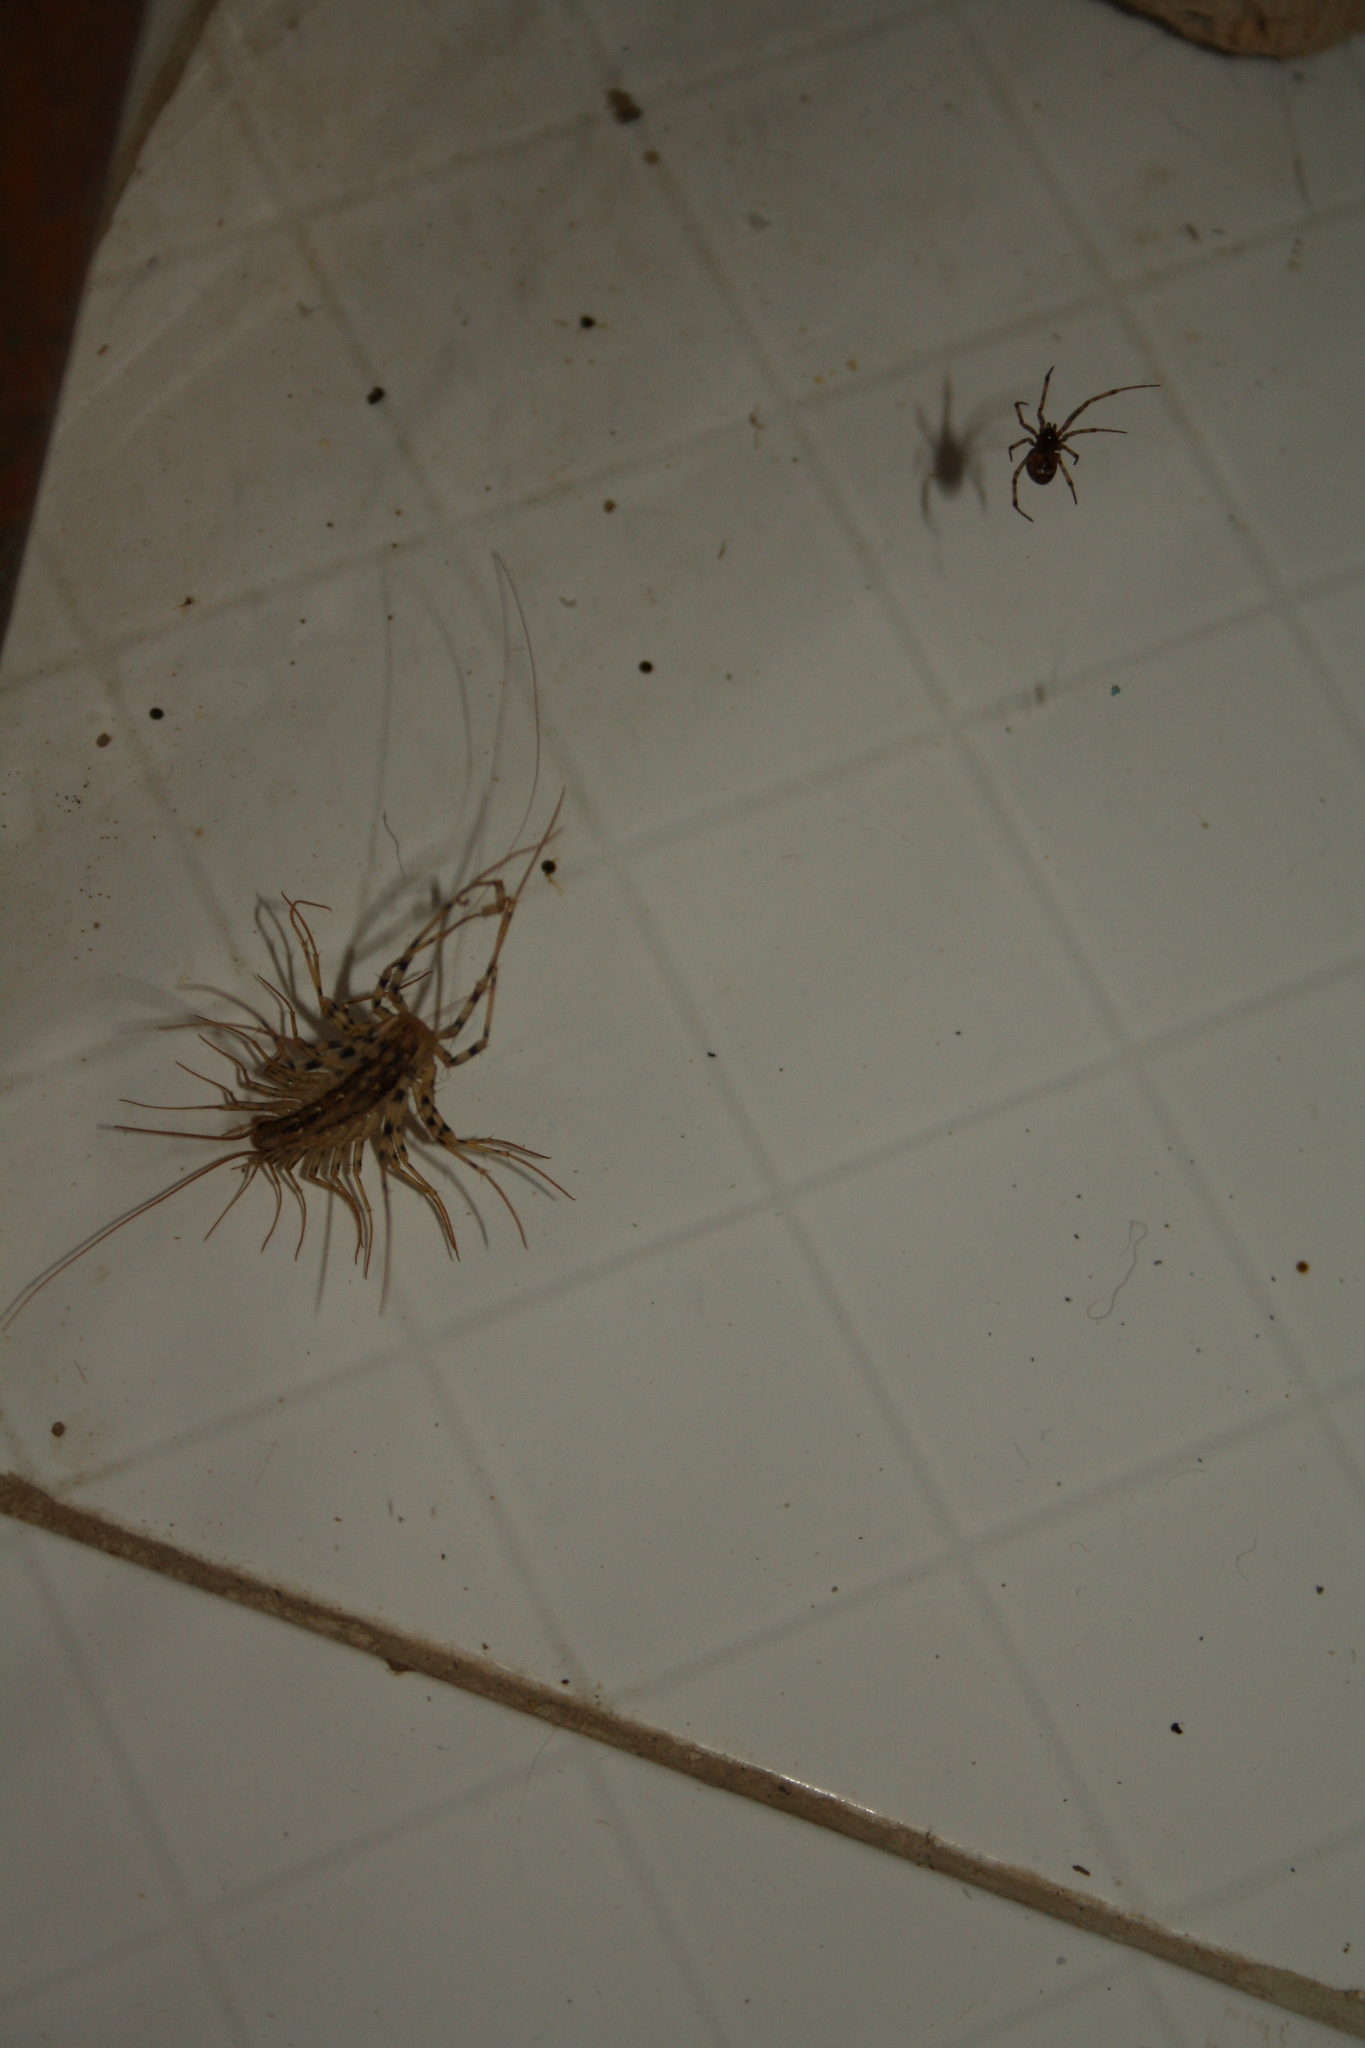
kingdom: Animalia
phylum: Arthropoda
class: Chilopoda
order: Scutigeromorpha
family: Scutigeridae
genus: Scutigera
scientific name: Scutigera coleoptrata
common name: House centipede
